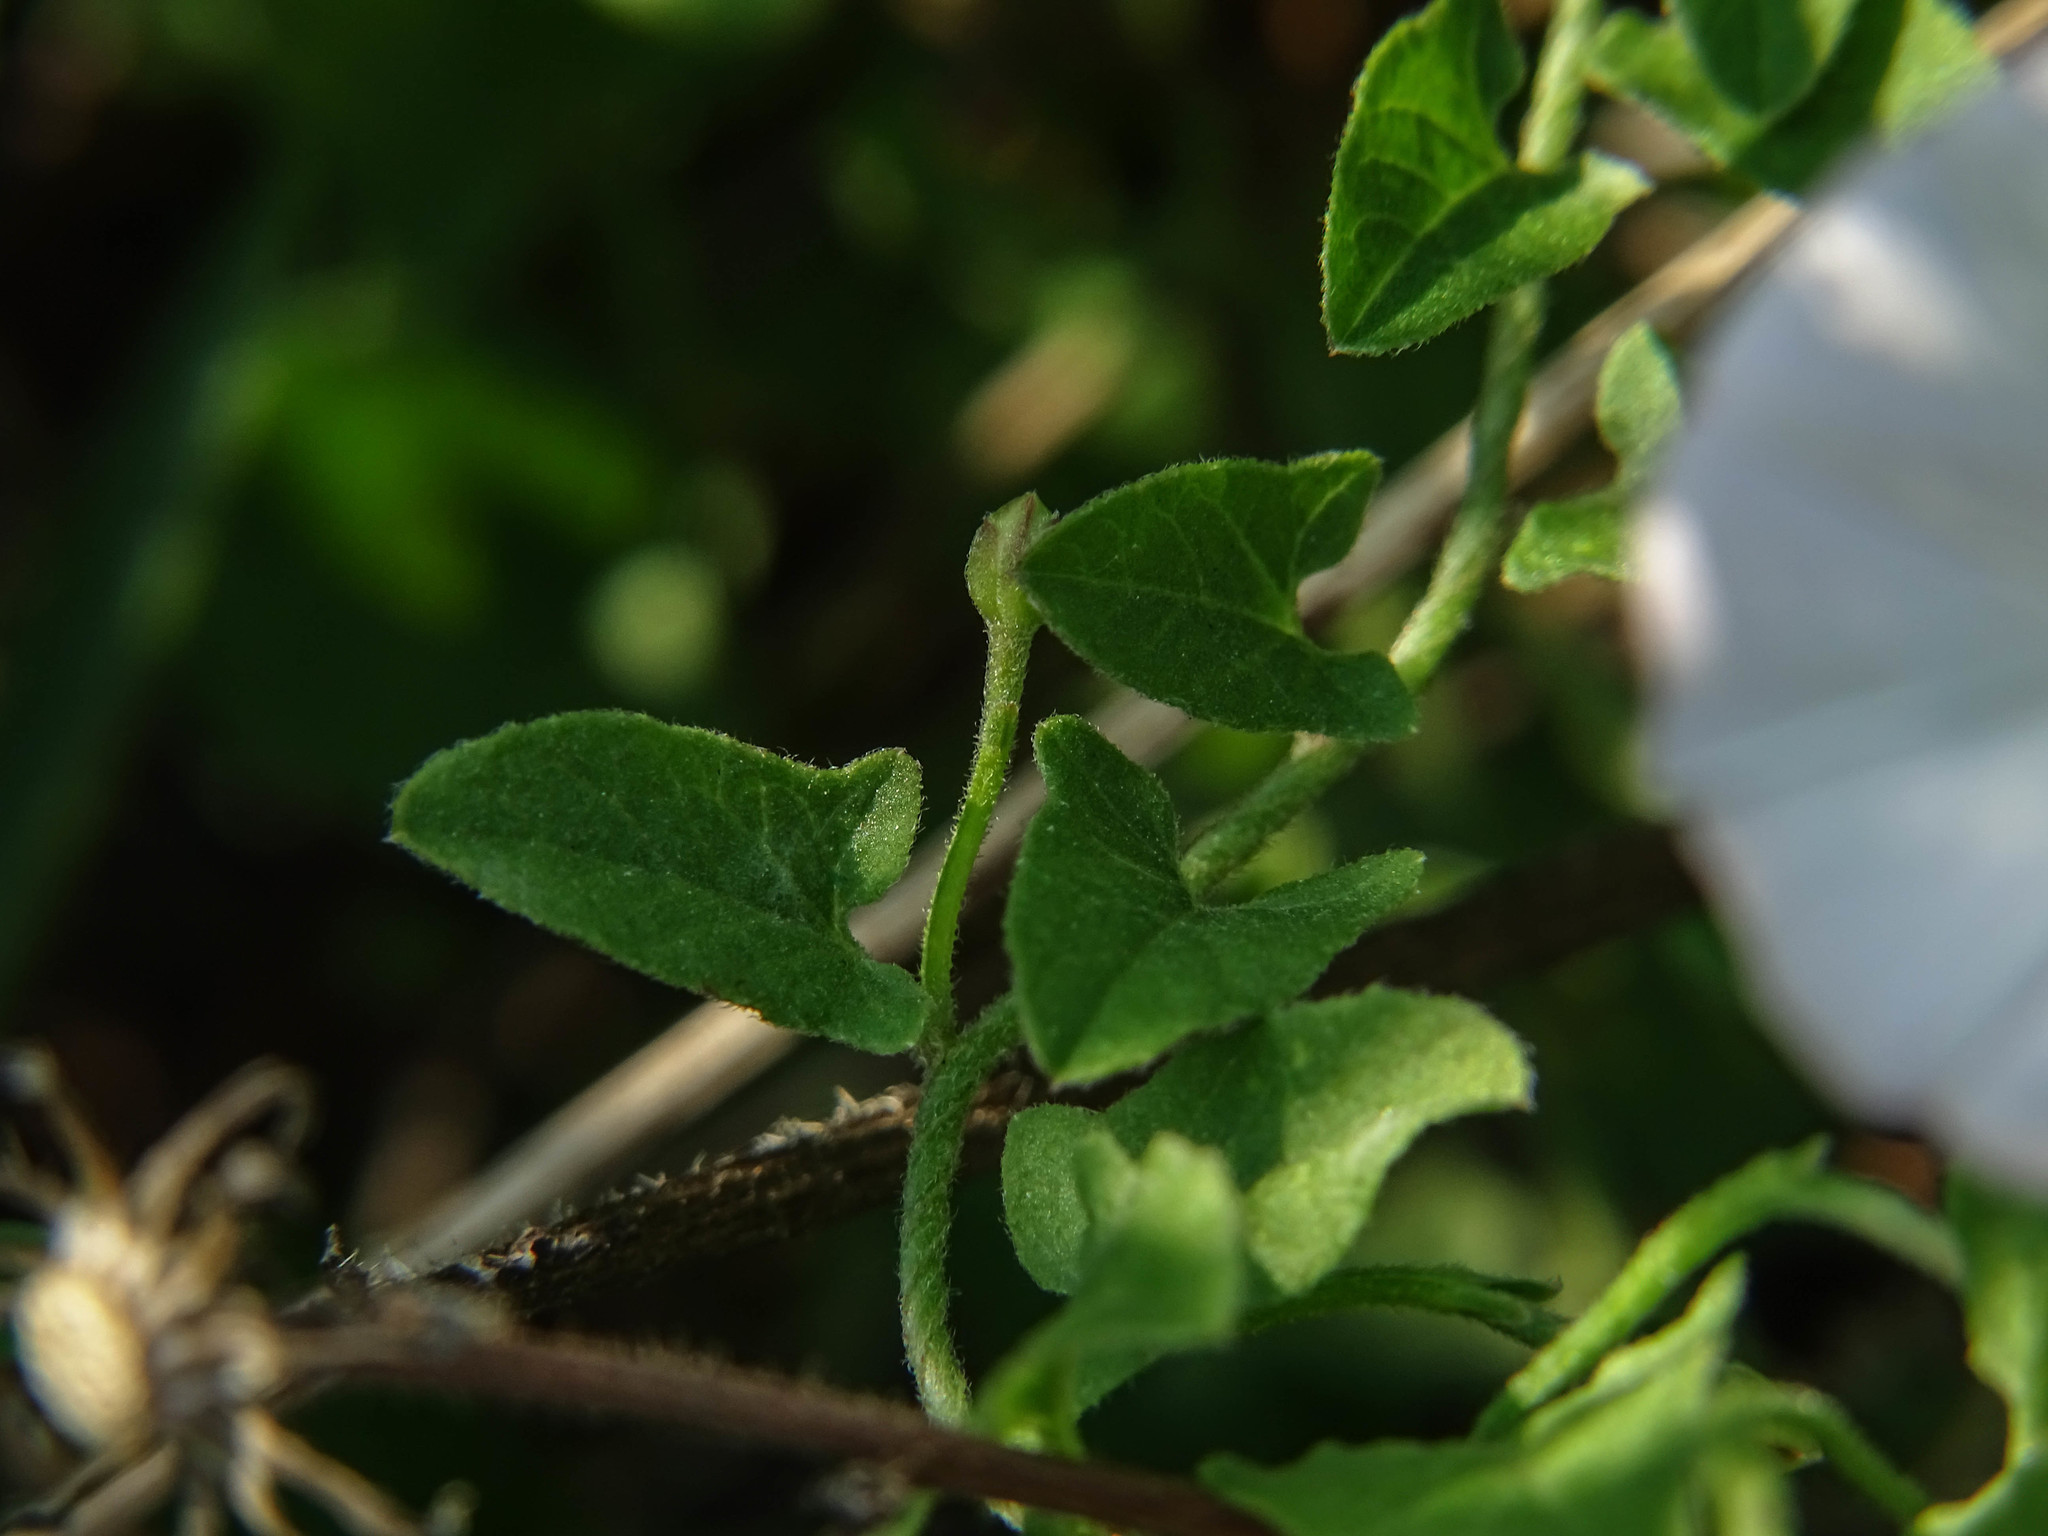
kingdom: Plantae
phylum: Tracheophyta
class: Magnoliopsida
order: Solanales
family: Convolvulaceae
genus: Convolvulus
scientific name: Convolvulus arvensis
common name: Field bindweed
